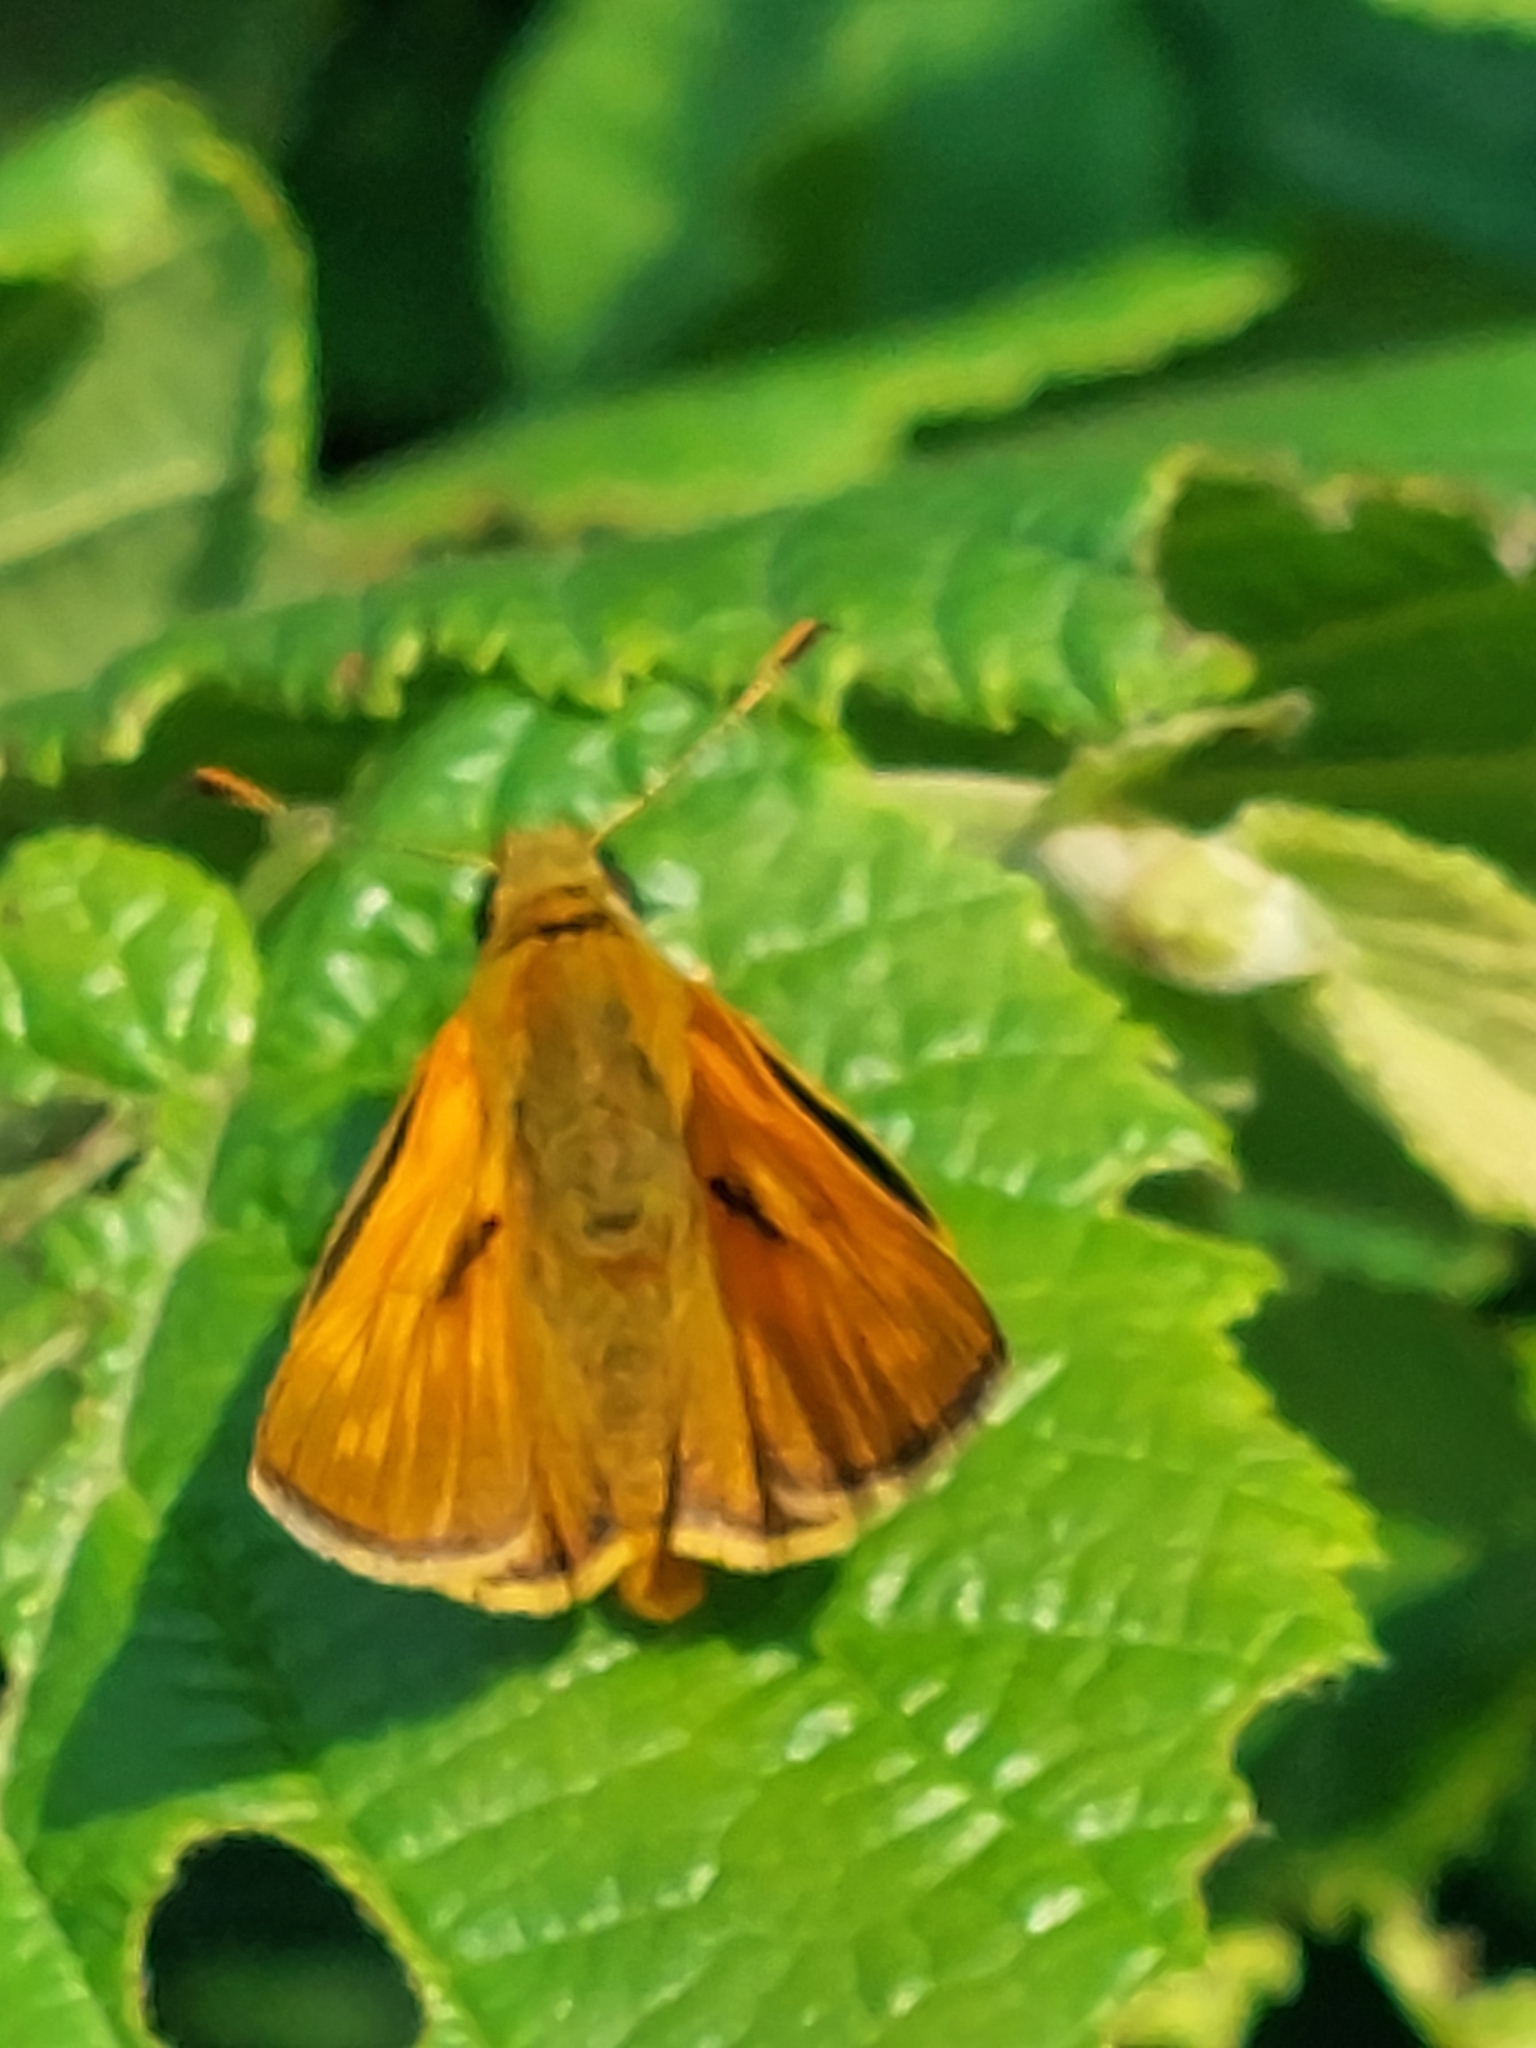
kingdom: Animalia
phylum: Arthropoda
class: Insecta
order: Lepidoptera
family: Hesperiidae
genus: Ochlodes
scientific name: Ochlodes venata
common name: Large skipper
